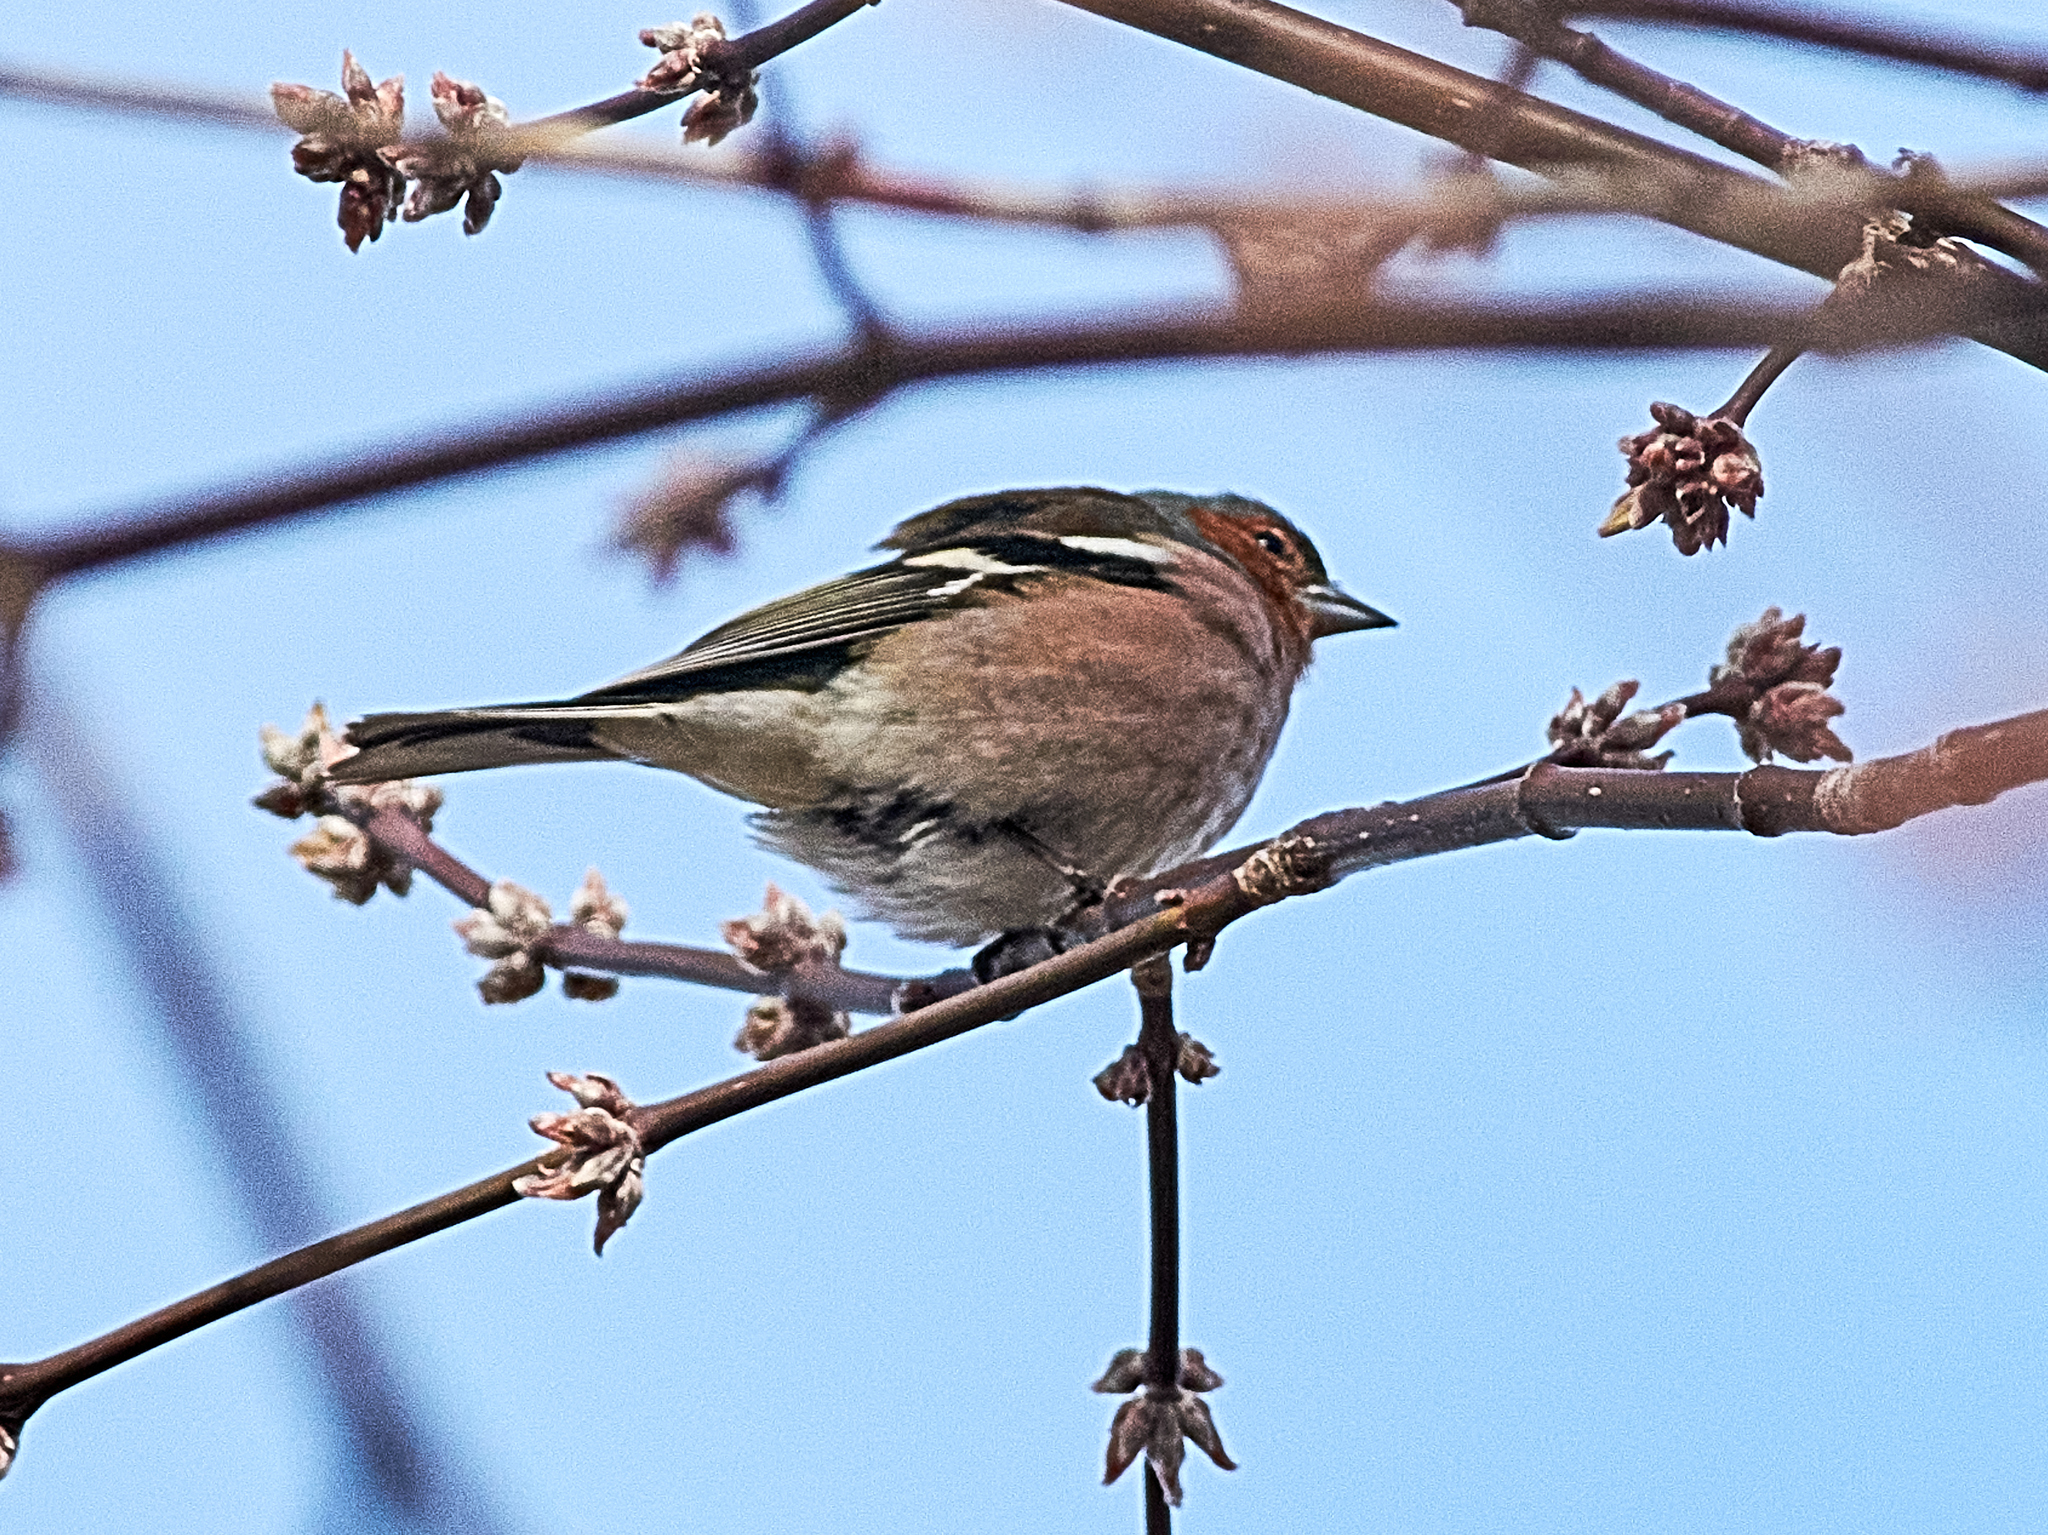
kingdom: Animalia
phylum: Chordata
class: Aves
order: Passeriformes
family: Fringillidae
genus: Fringilla
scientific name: Fringilla coelebs
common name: Common chaffinch
